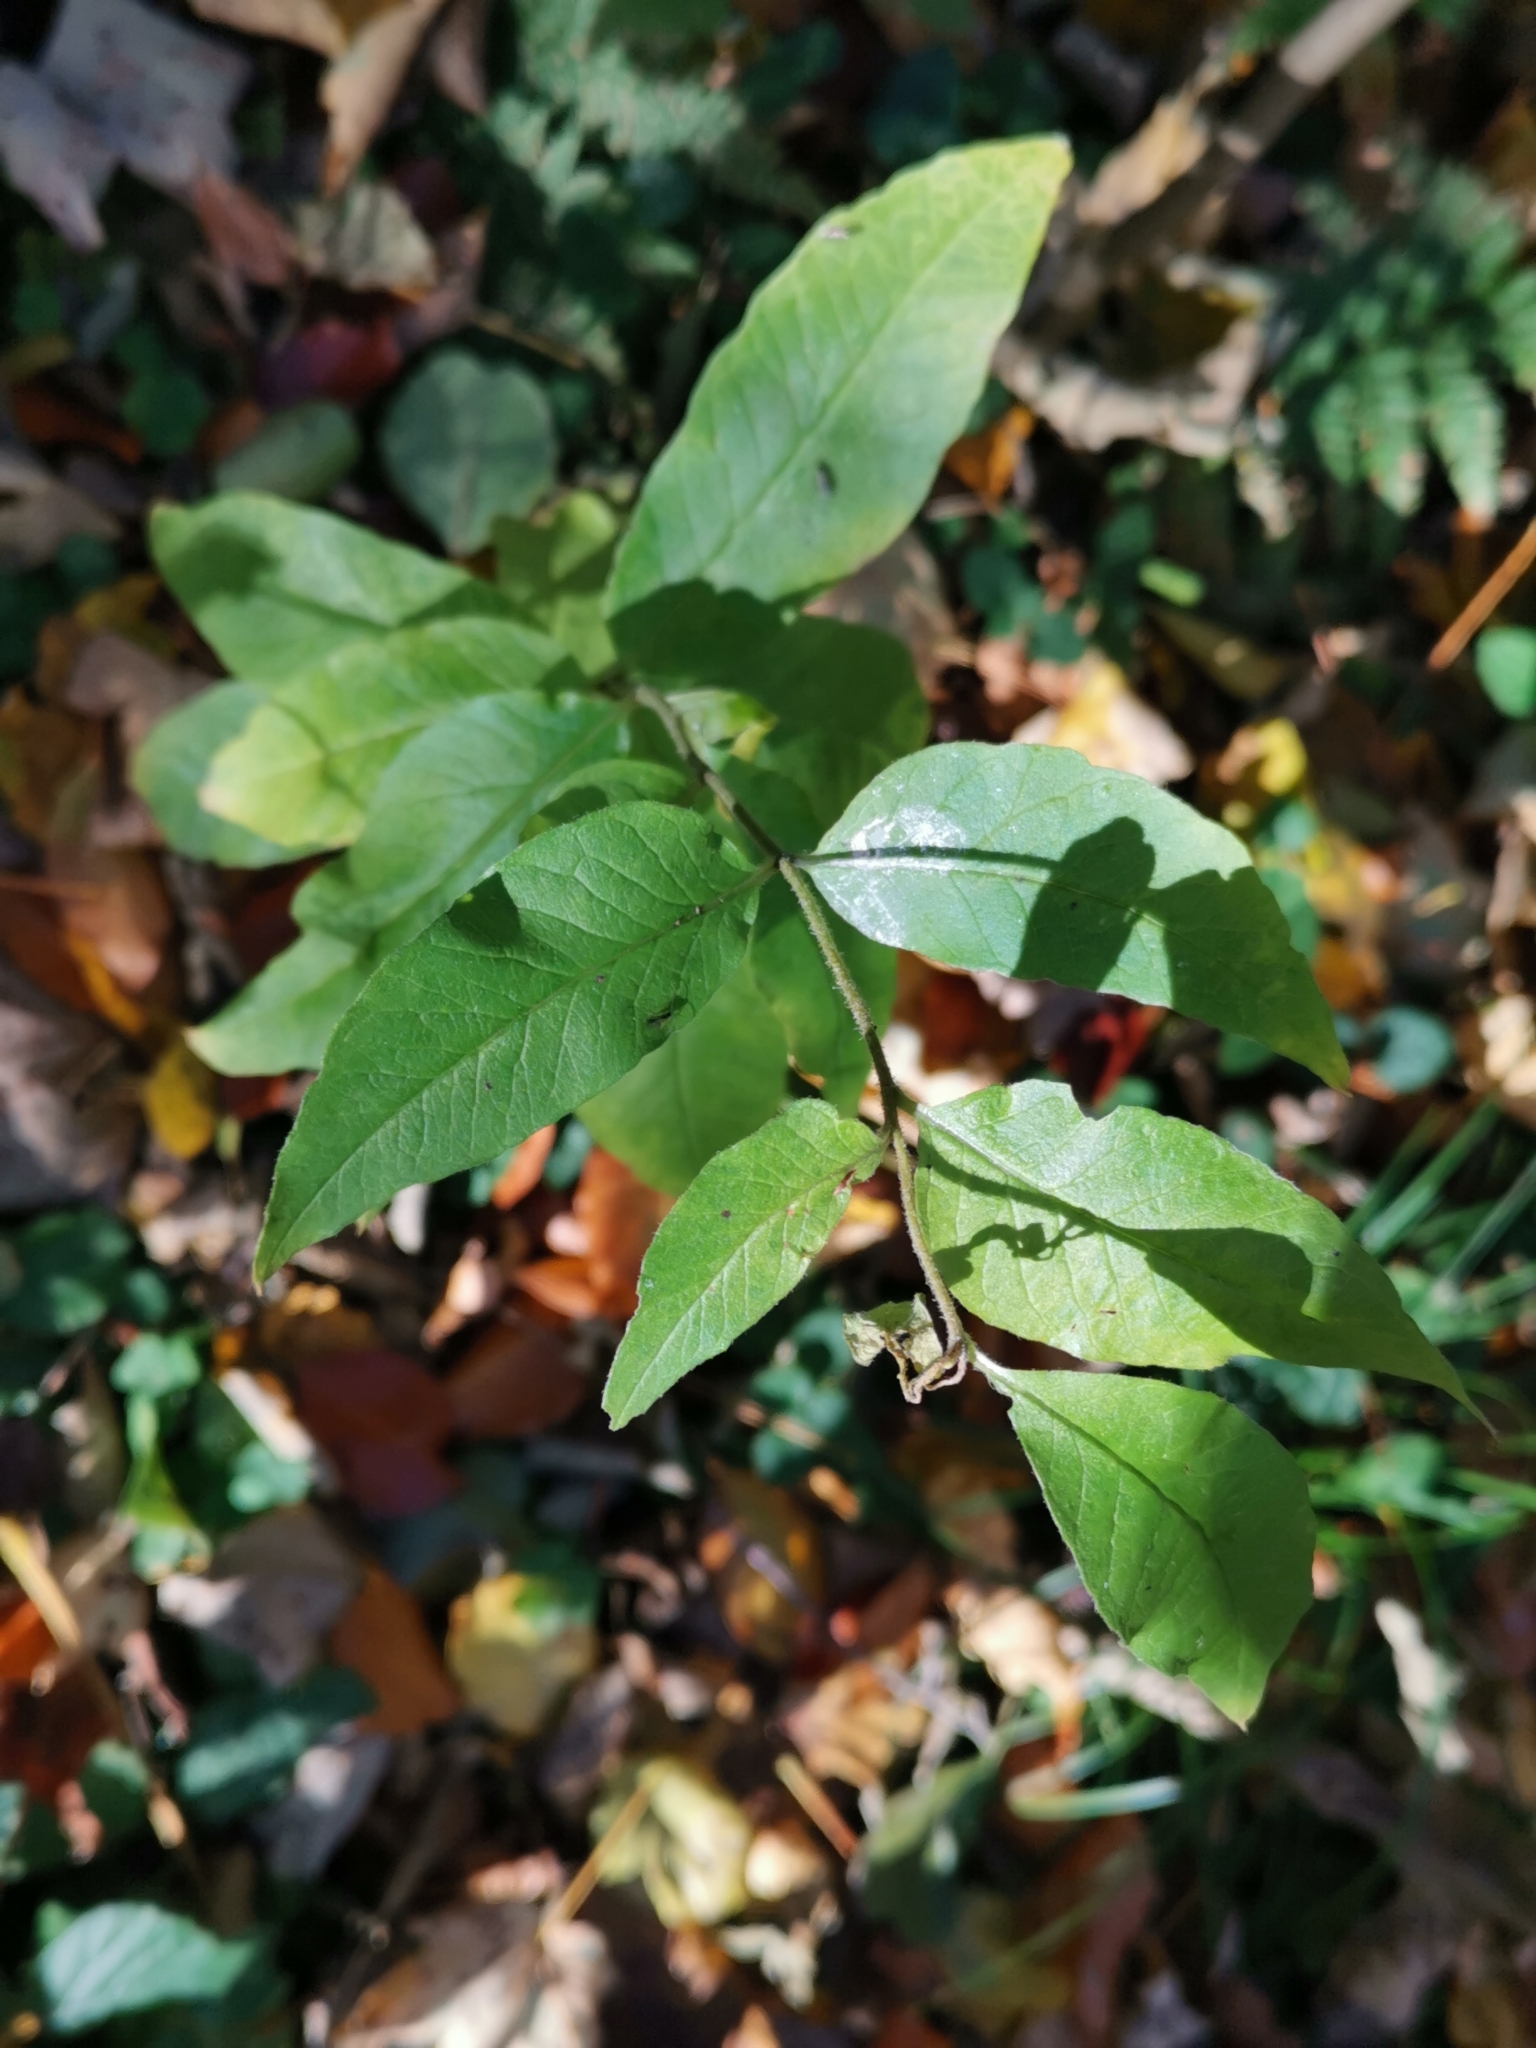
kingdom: Plantae
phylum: Tracheophyta
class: Magnoliopsida
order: Ericales
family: Primulaceae
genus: Lysimachia
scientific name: Lysimachia vulgaris
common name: Yellow loosestrife
